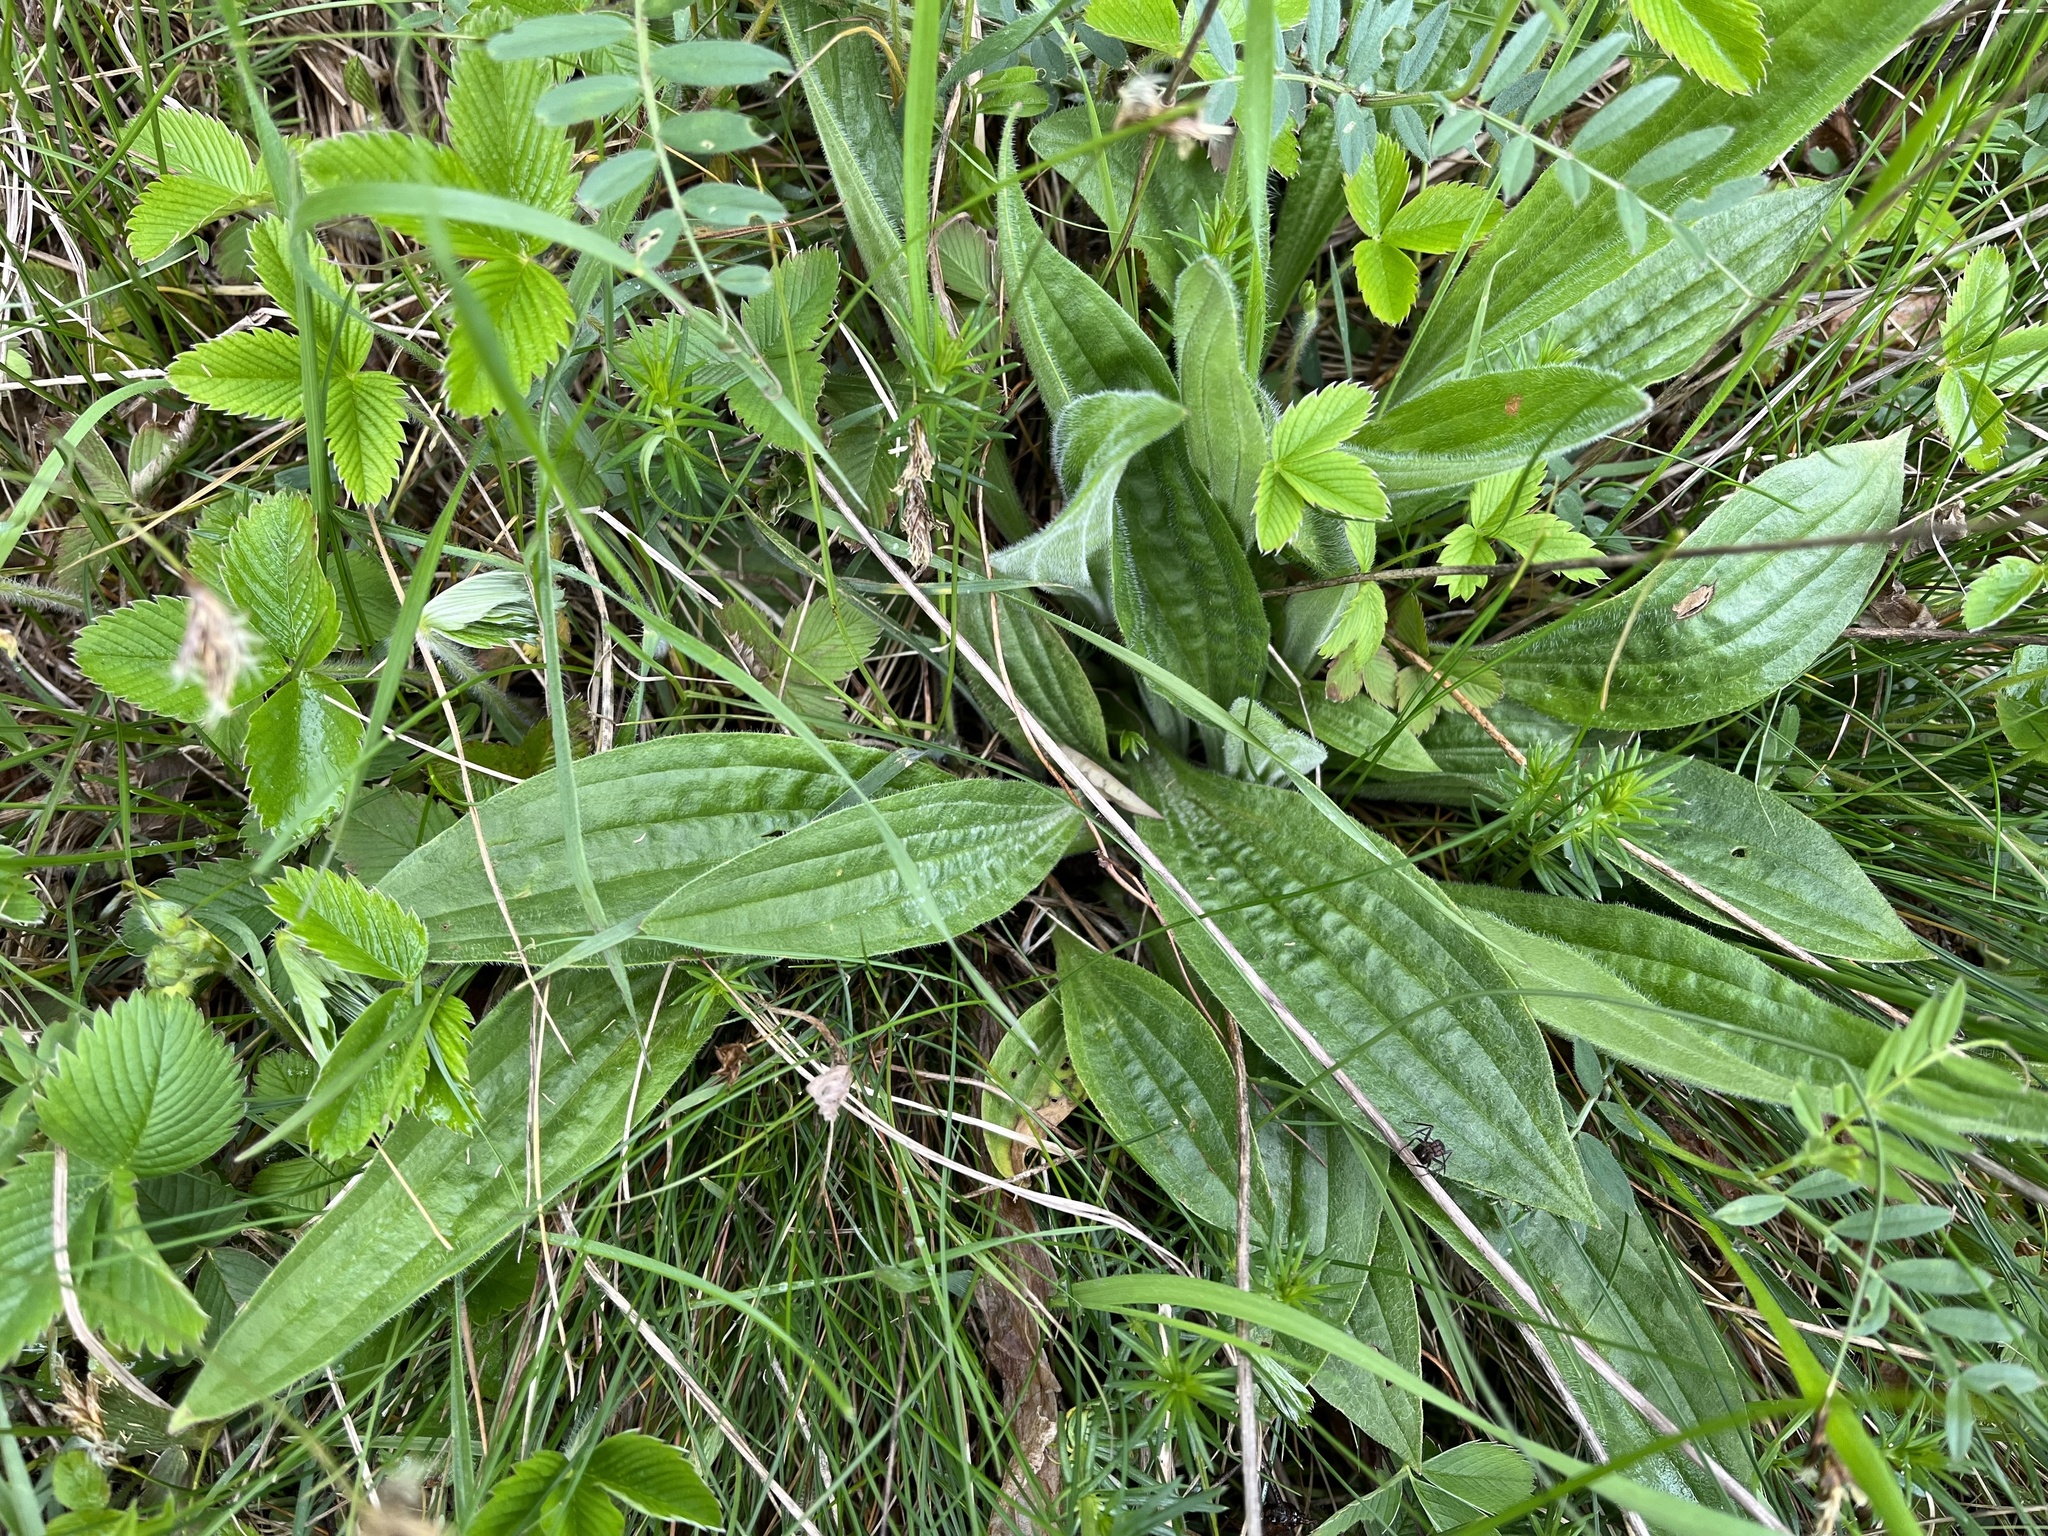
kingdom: Plantae
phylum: Tracheophyta
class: Magnoliopsida
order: Lamiales
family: Plantaginaceae
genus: Plantago
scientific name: Plantago media
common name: Hoary plantain
